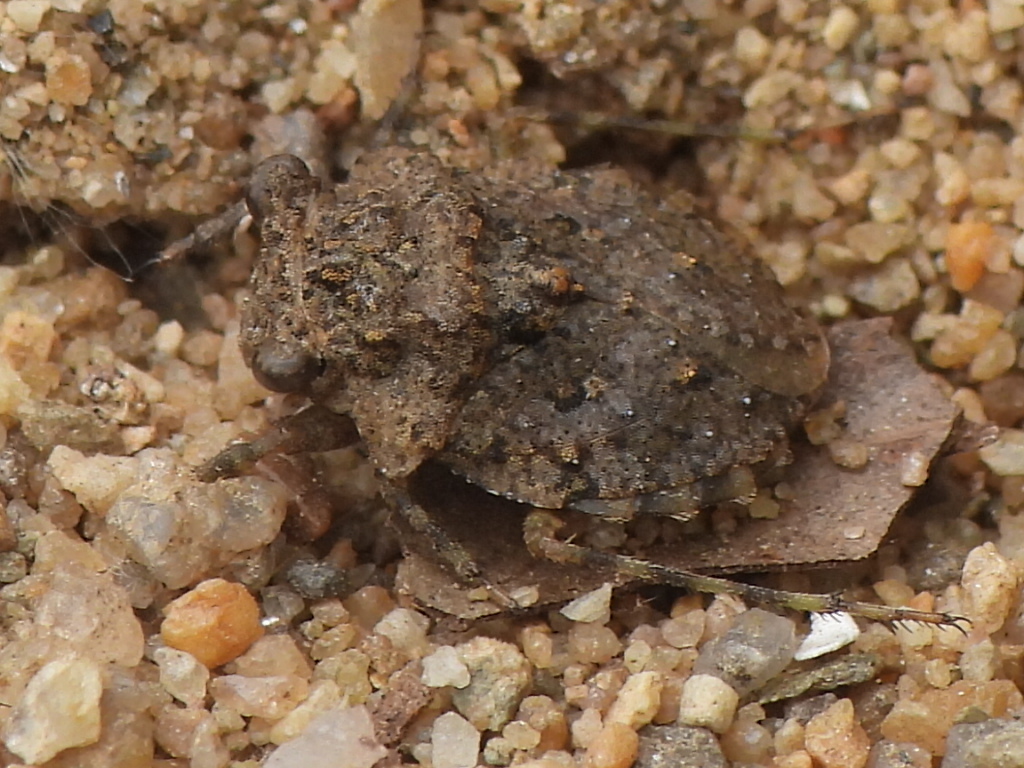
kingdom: Animalia
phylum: Arthropoda
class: Insecta
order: Hemiptera
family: Gelastocoridae
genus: Gelastocoris
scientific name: Gelastocoris oculatus
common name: Toad bug
